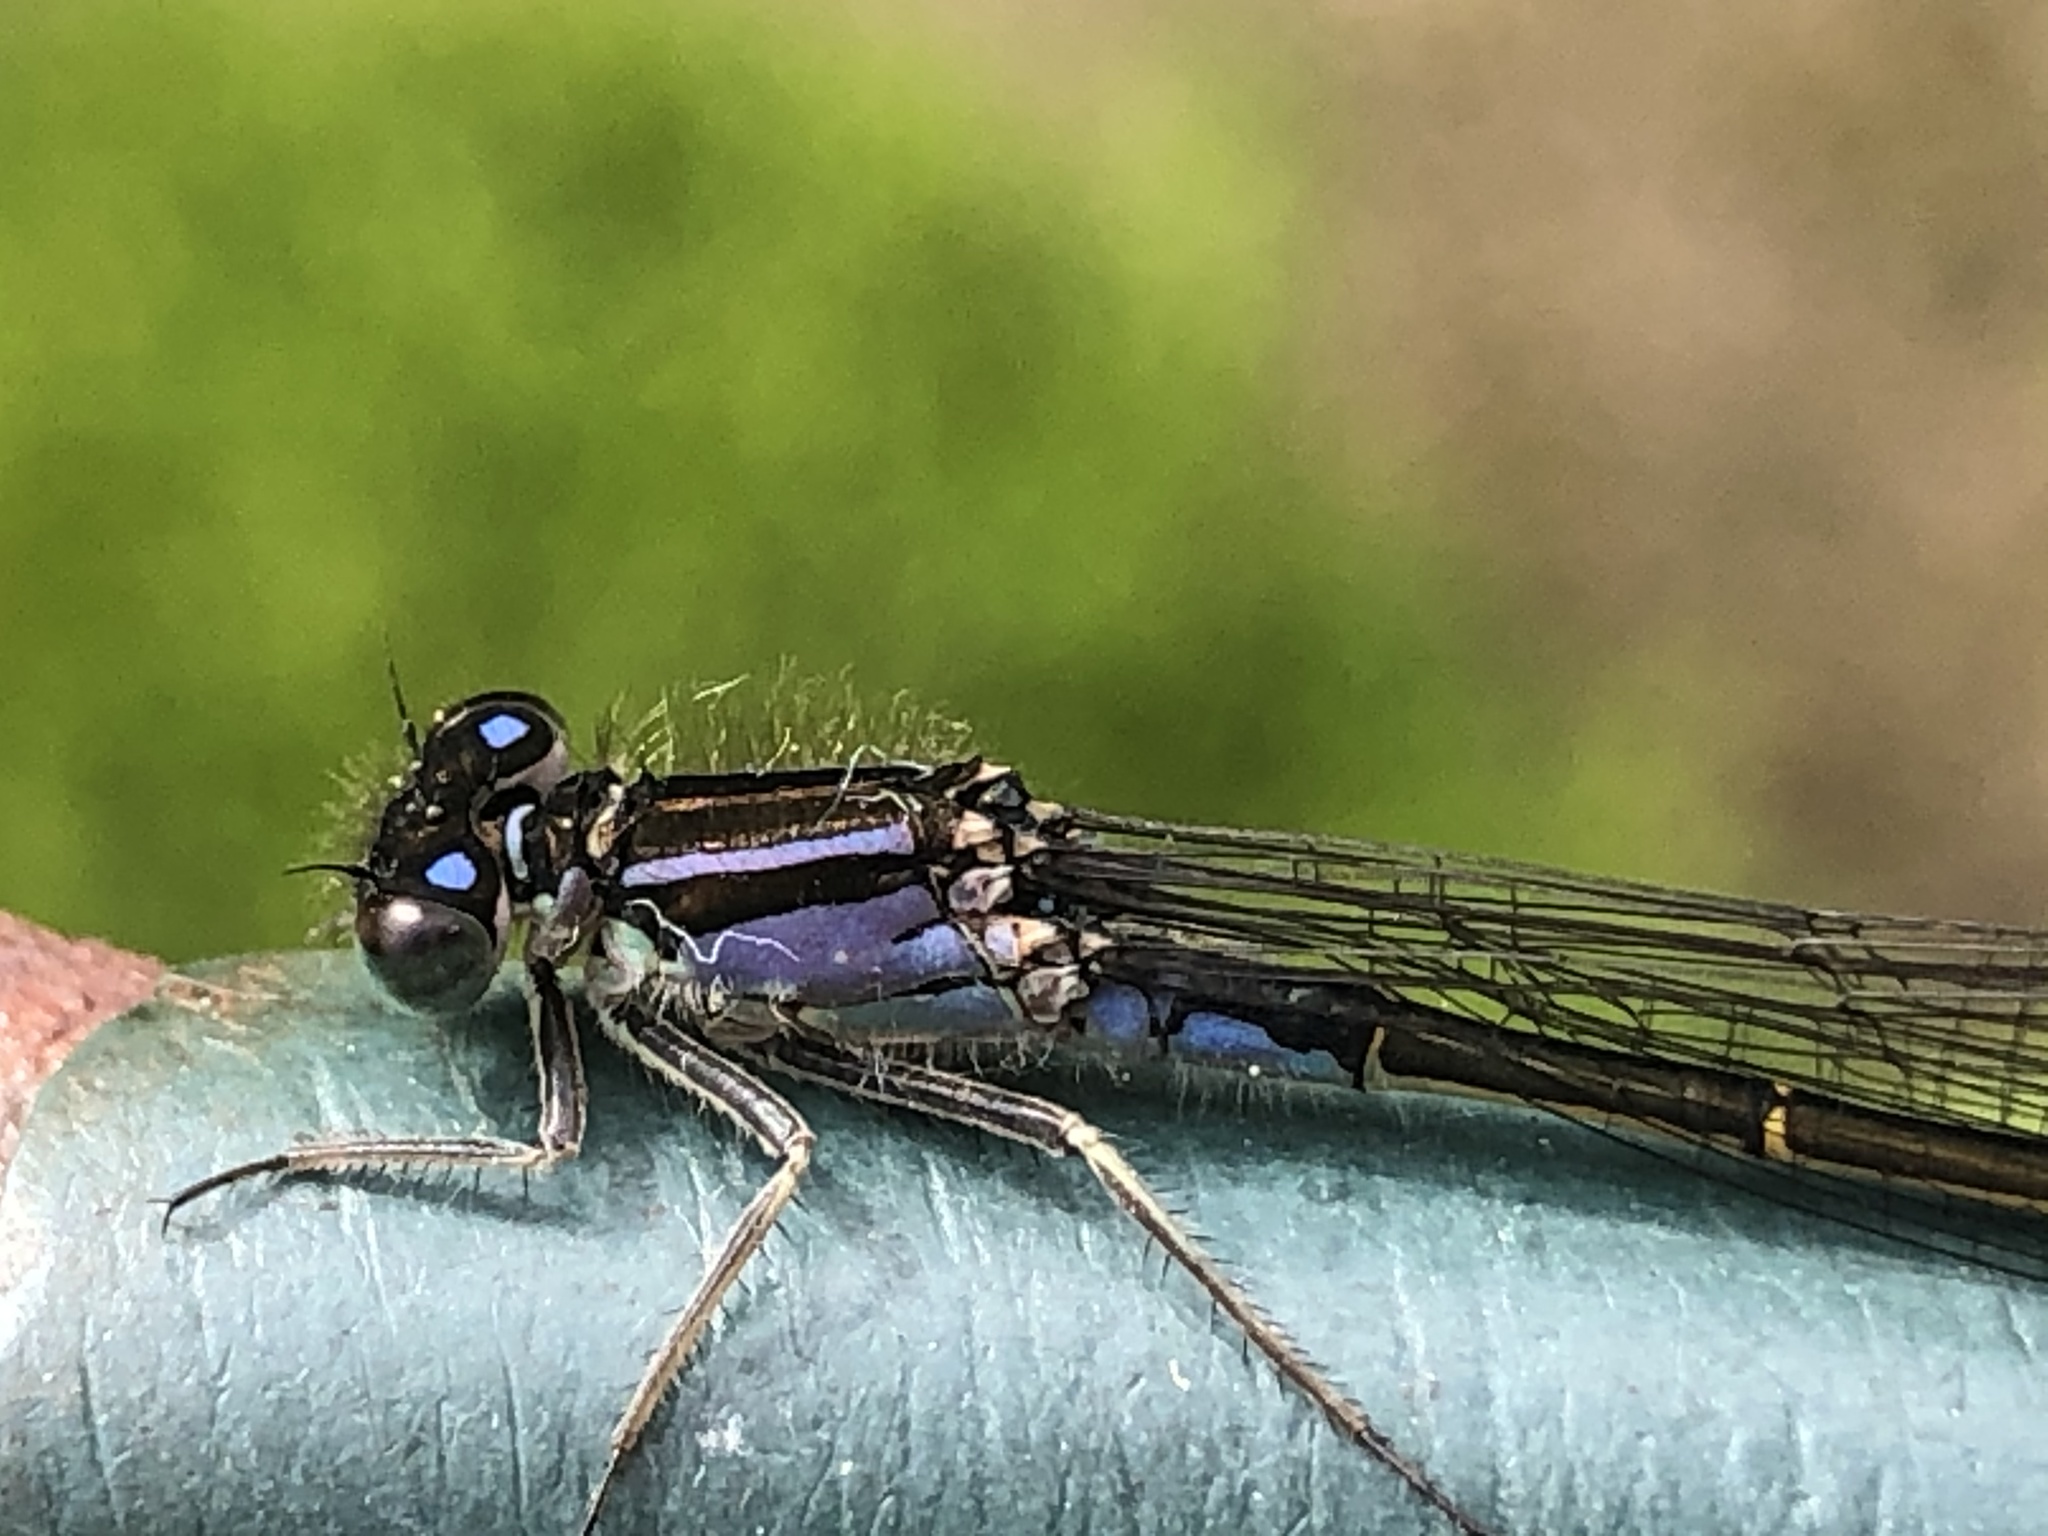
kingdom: Animalia
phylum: Arthropoda
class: Insecta
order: Odonata
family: Coenagrionidae
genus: Ischnura
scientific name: Ischnura elegans
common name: Blue-tailed damselfly
